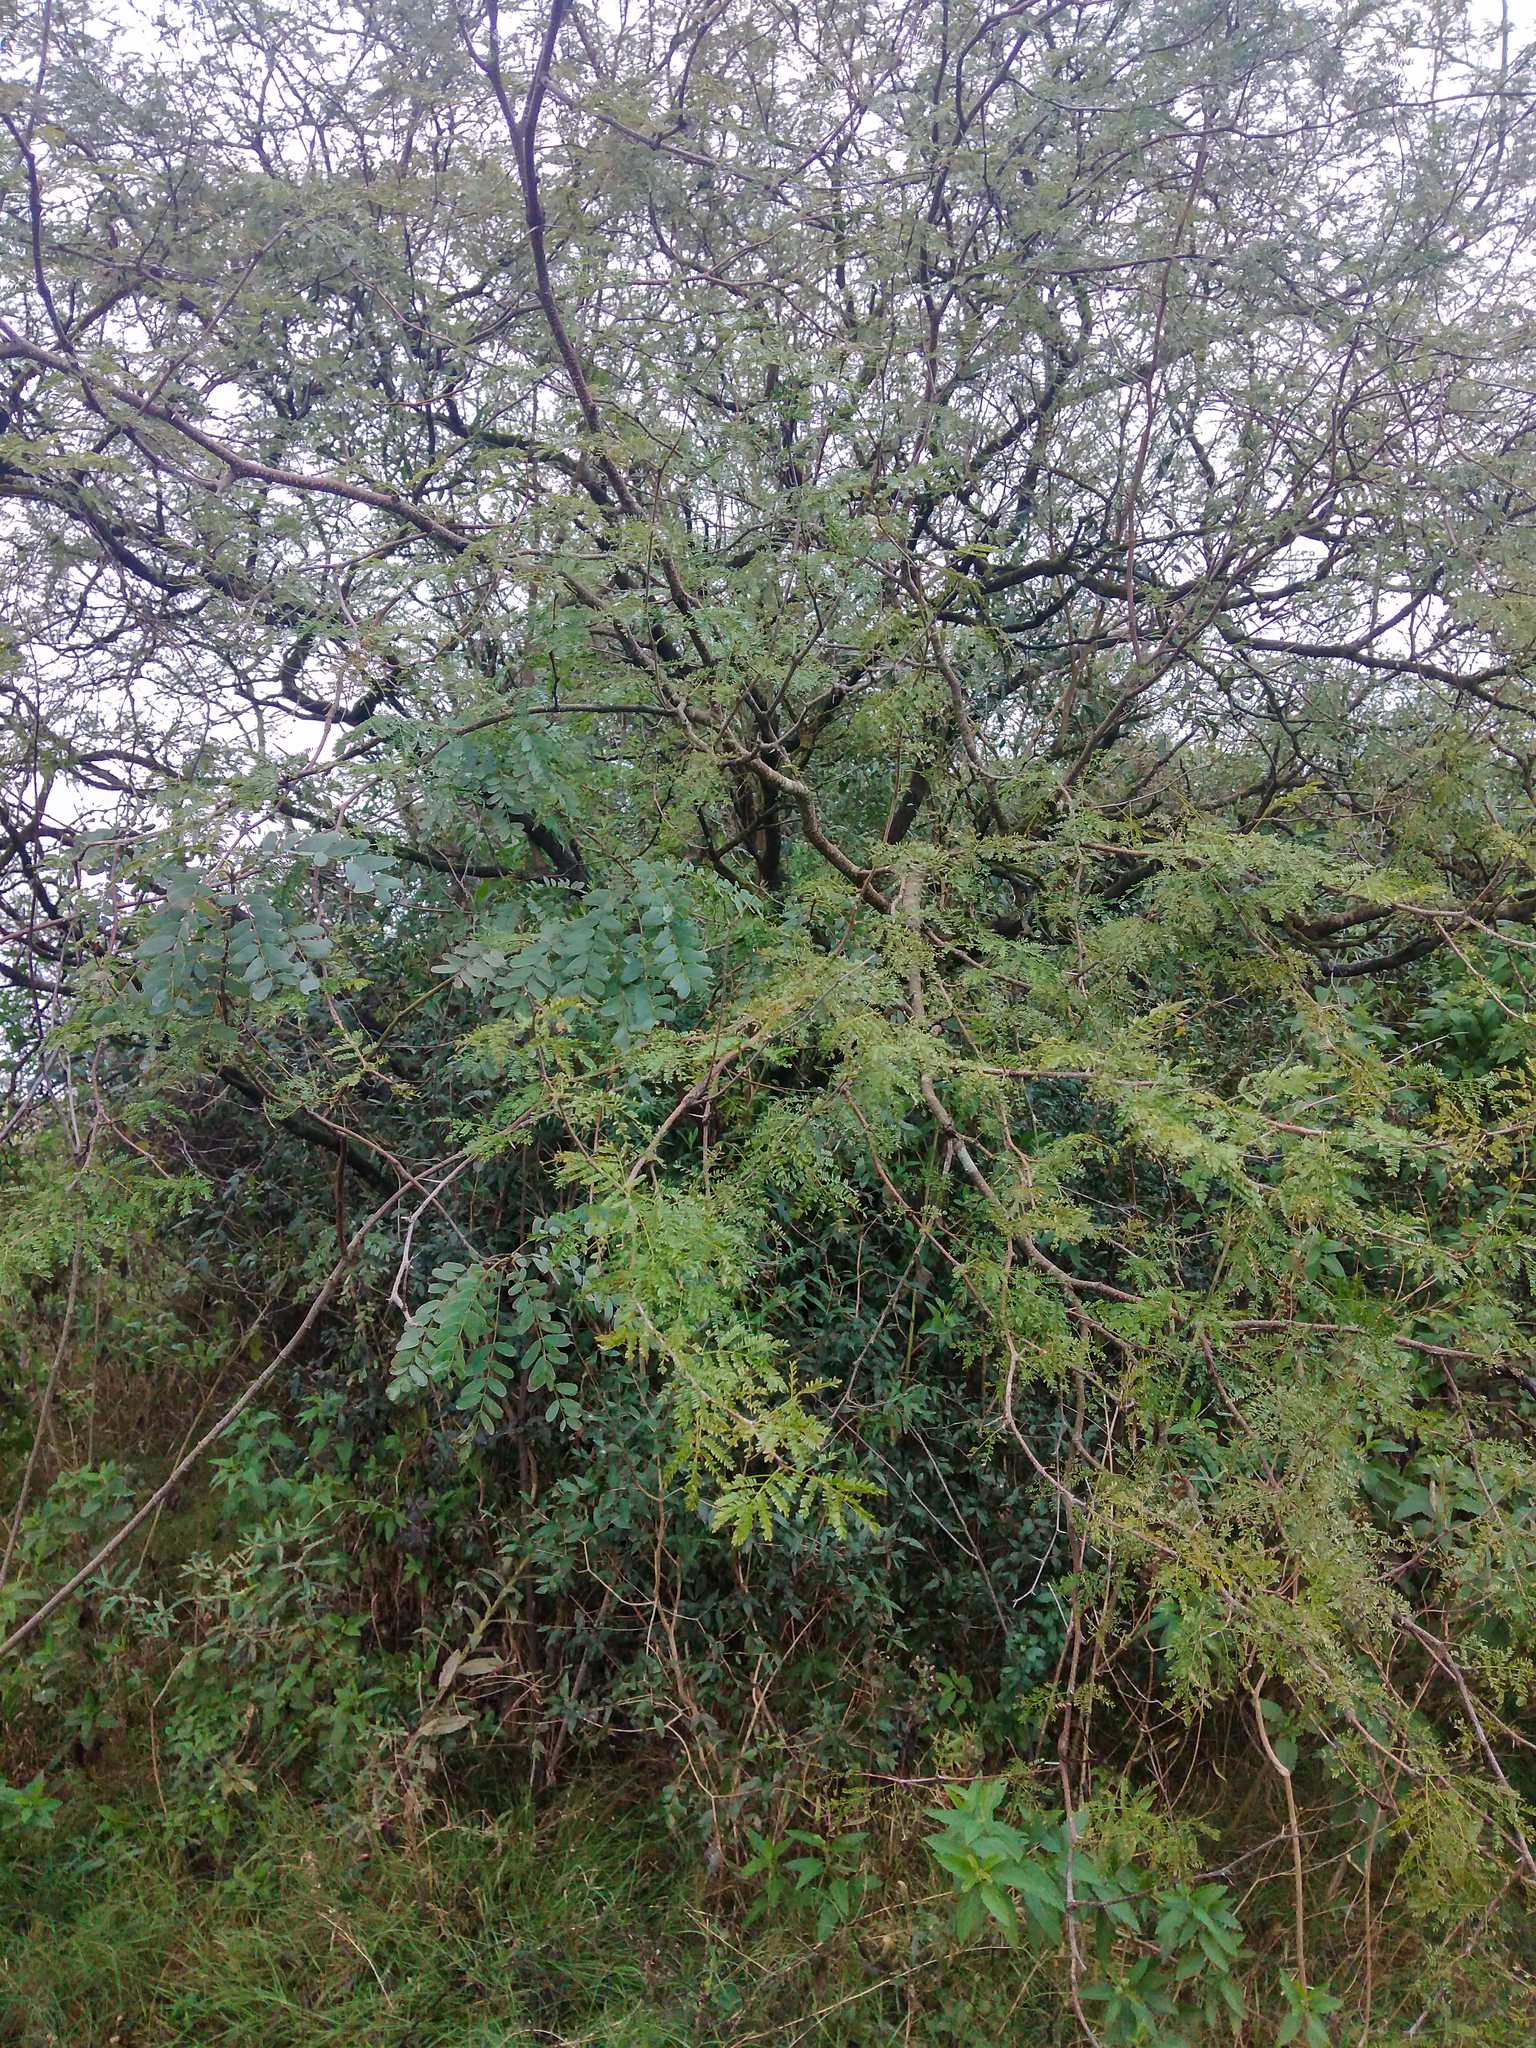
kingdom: Plantae
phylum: Tracheophyta
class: Magnoliopsida
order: Fabales
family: Fabaceae
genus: Vachellia
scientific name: Vachellia caven
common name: Roman cassie
